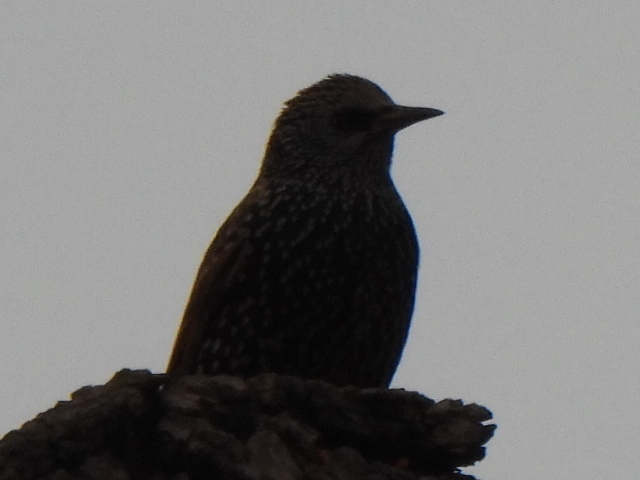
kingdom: Animalia
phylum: Chordata
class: Aves
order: Passeriformes
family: Sturnidae
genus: Sturnus
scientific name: Sturnus vulgaris
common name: Common starling
